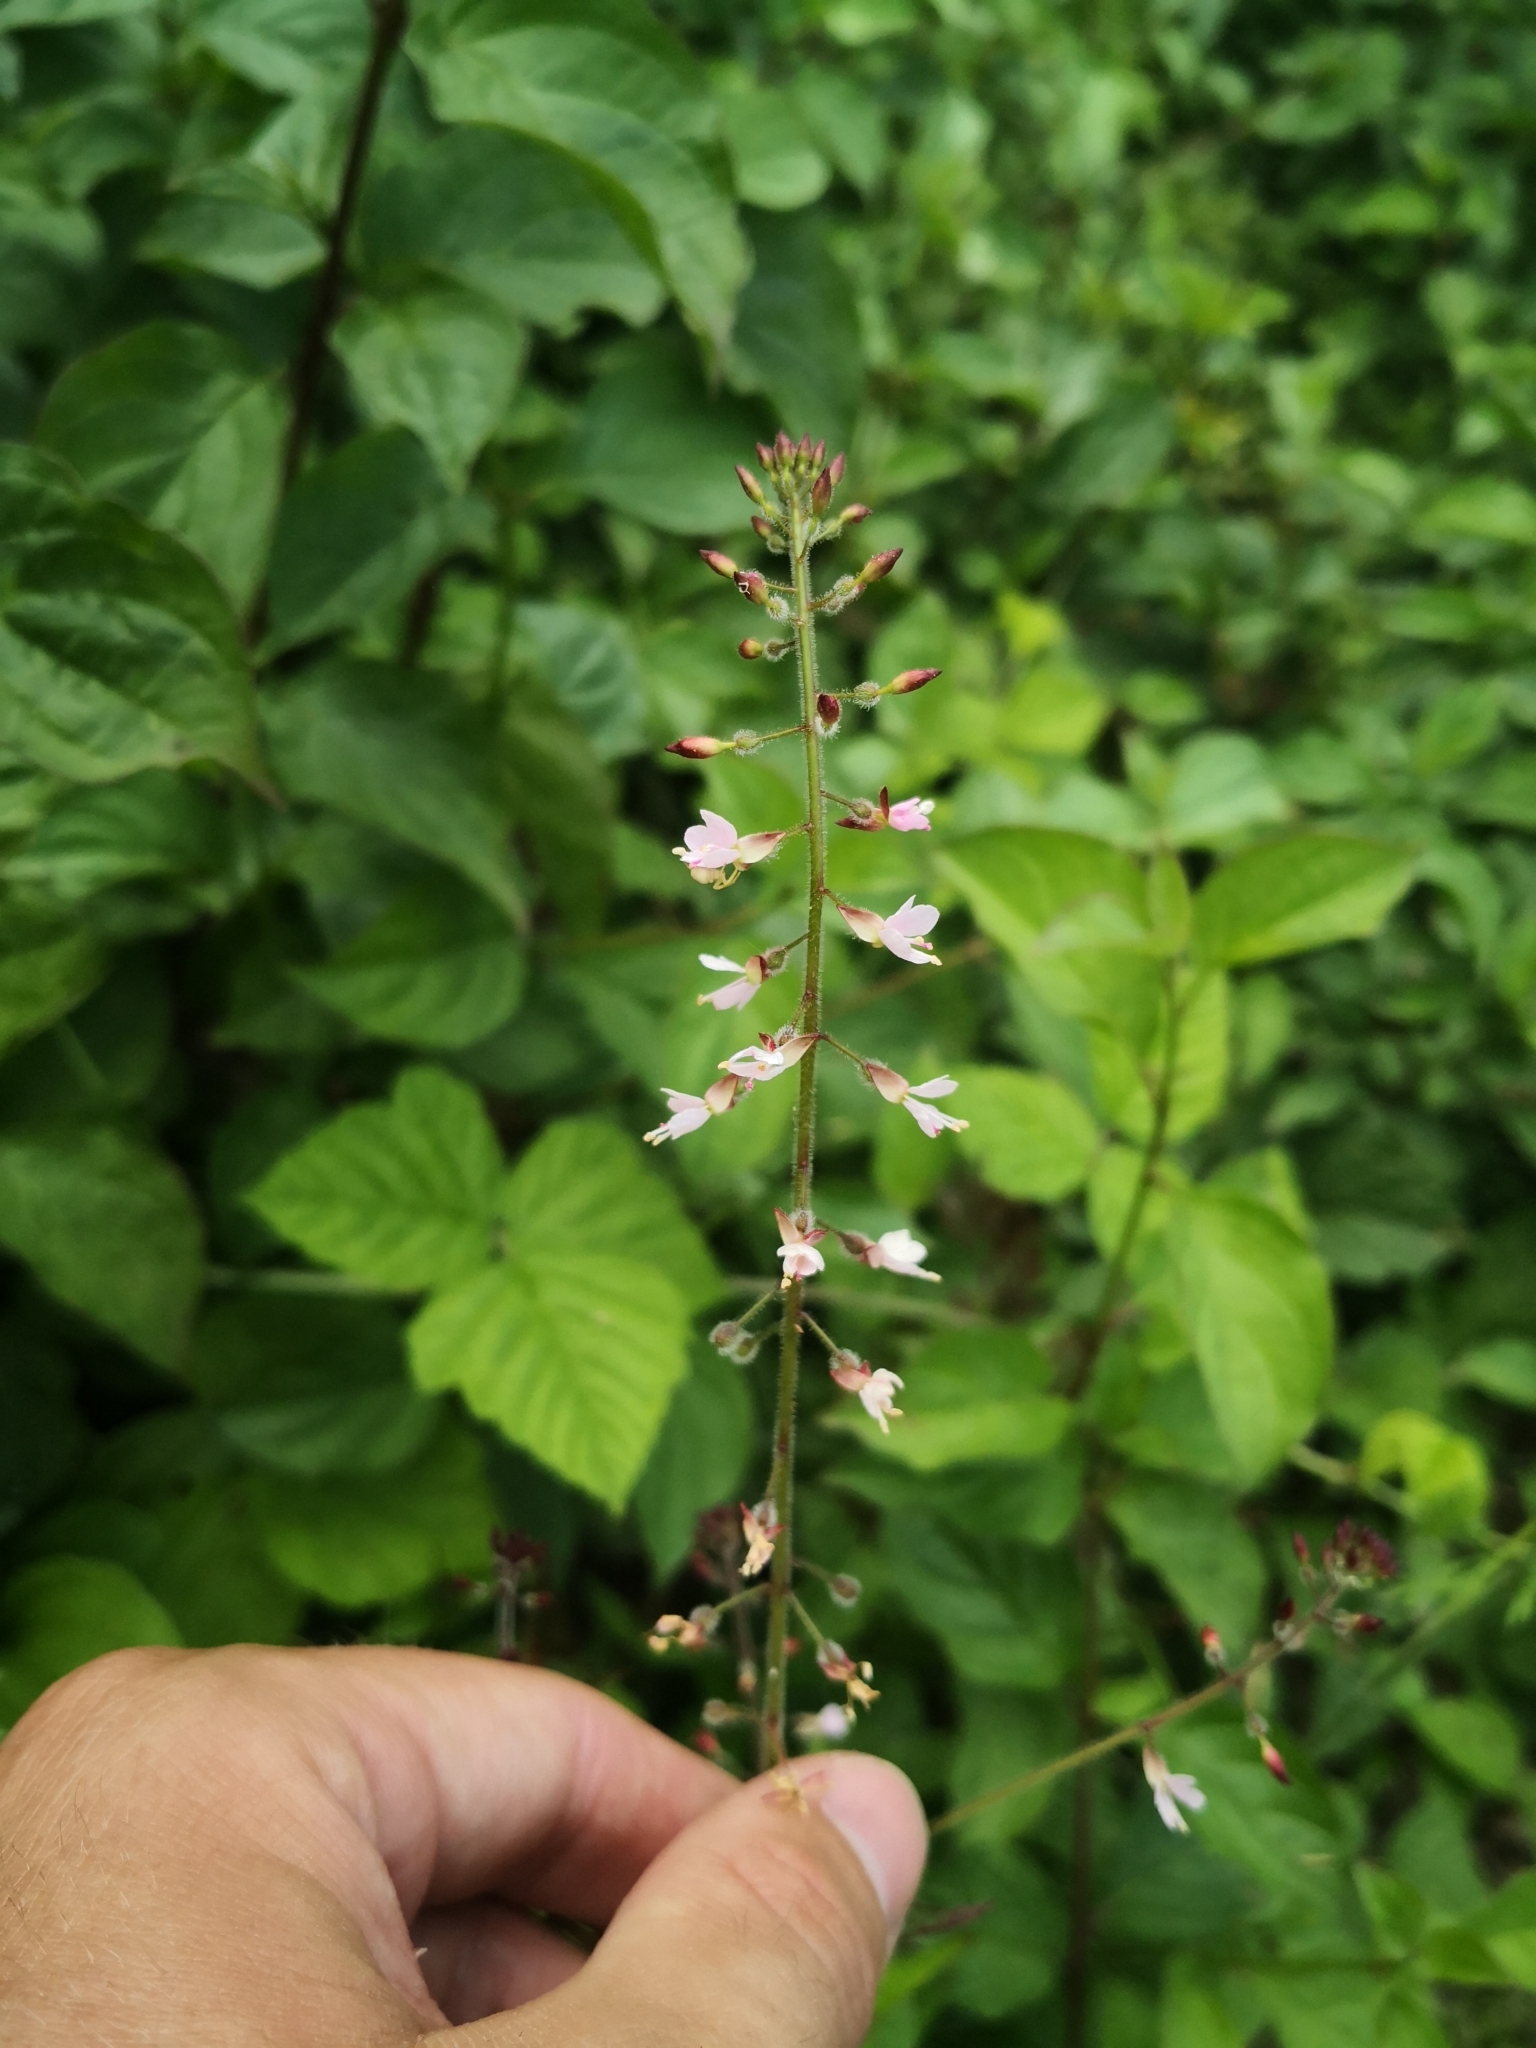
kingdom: Plantae
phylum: Tracheophyta
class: Magnoliopsida
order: Myrtales
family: Onagraceae
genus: Circaea
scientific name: Circaea lutetiana
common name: Enchanter's-nightshade
